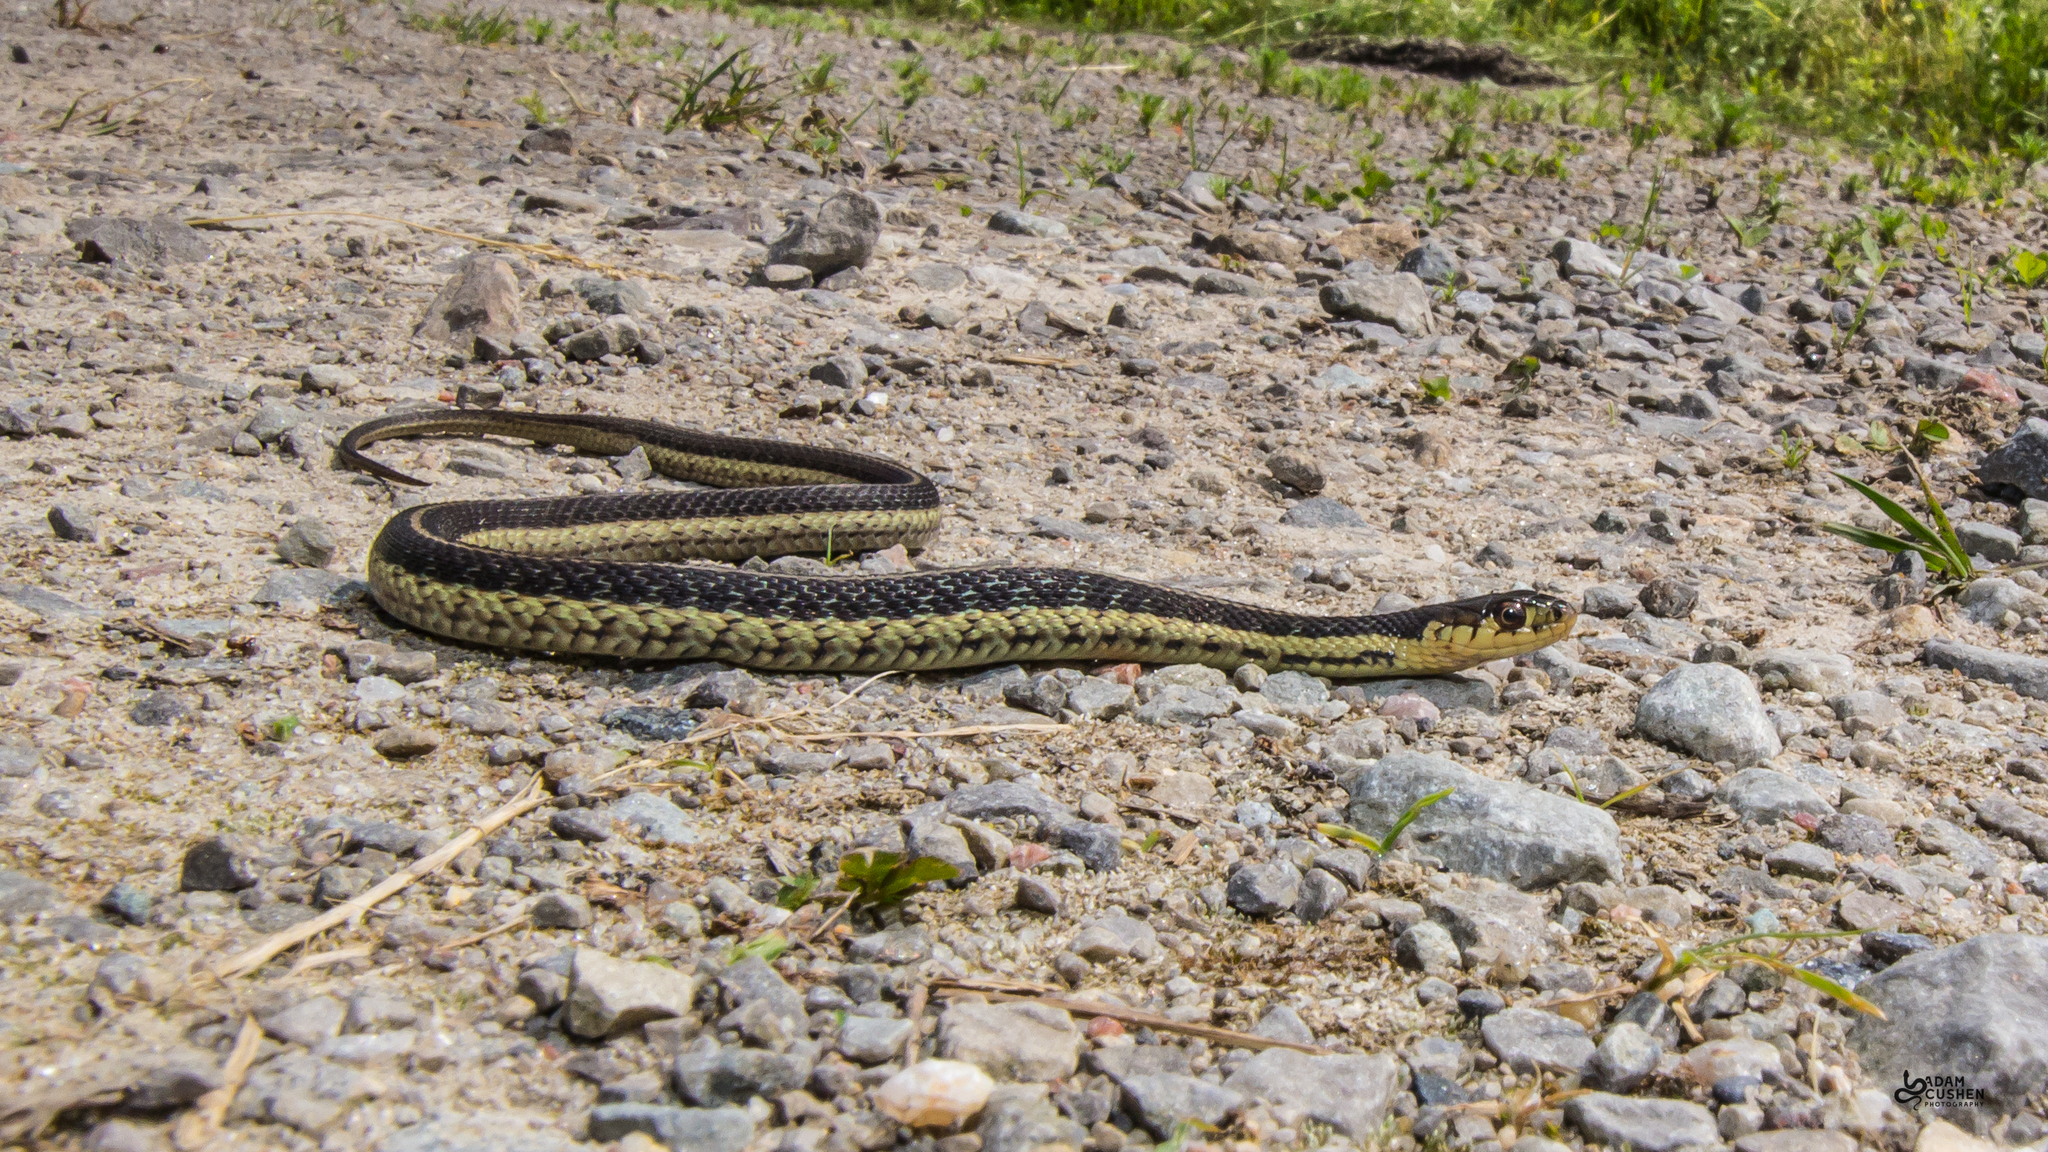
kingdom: Animalia
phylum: Chordata
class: Squamata
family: Colubridae
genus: Thamnophis
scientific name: Thamnophis sirtalis
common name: Common garter snake
